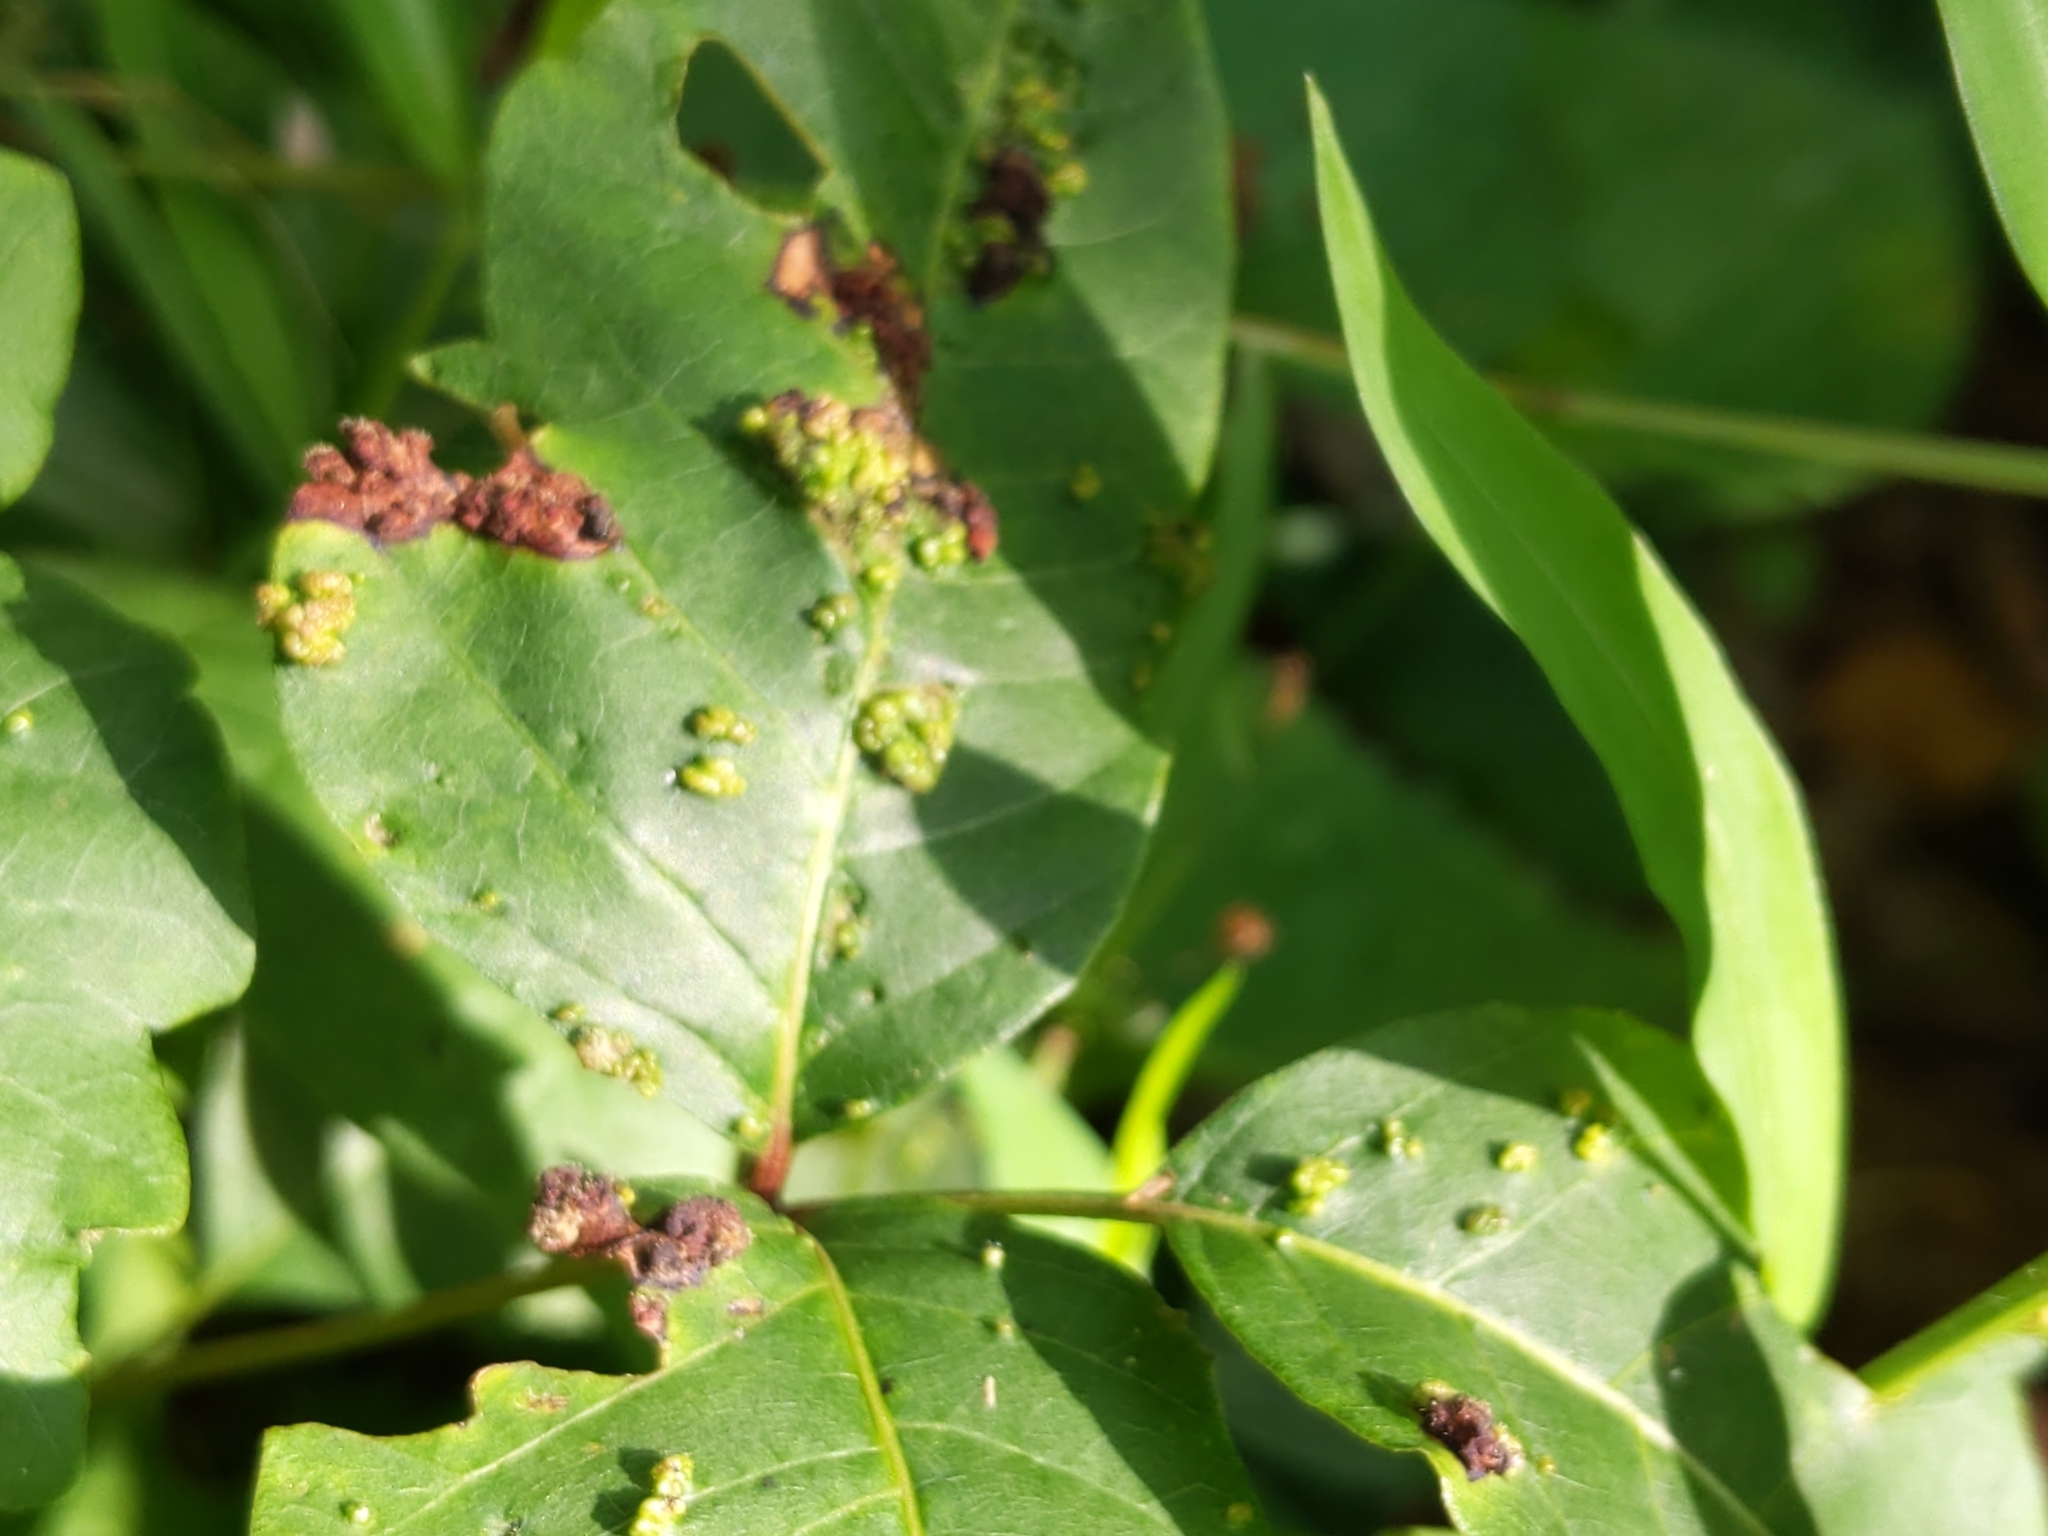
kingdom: Animalia
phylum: Arthropoda
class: Arachnida
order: Trombidiformes
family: Eriophyidae
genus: Aculops
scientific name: Aculops
